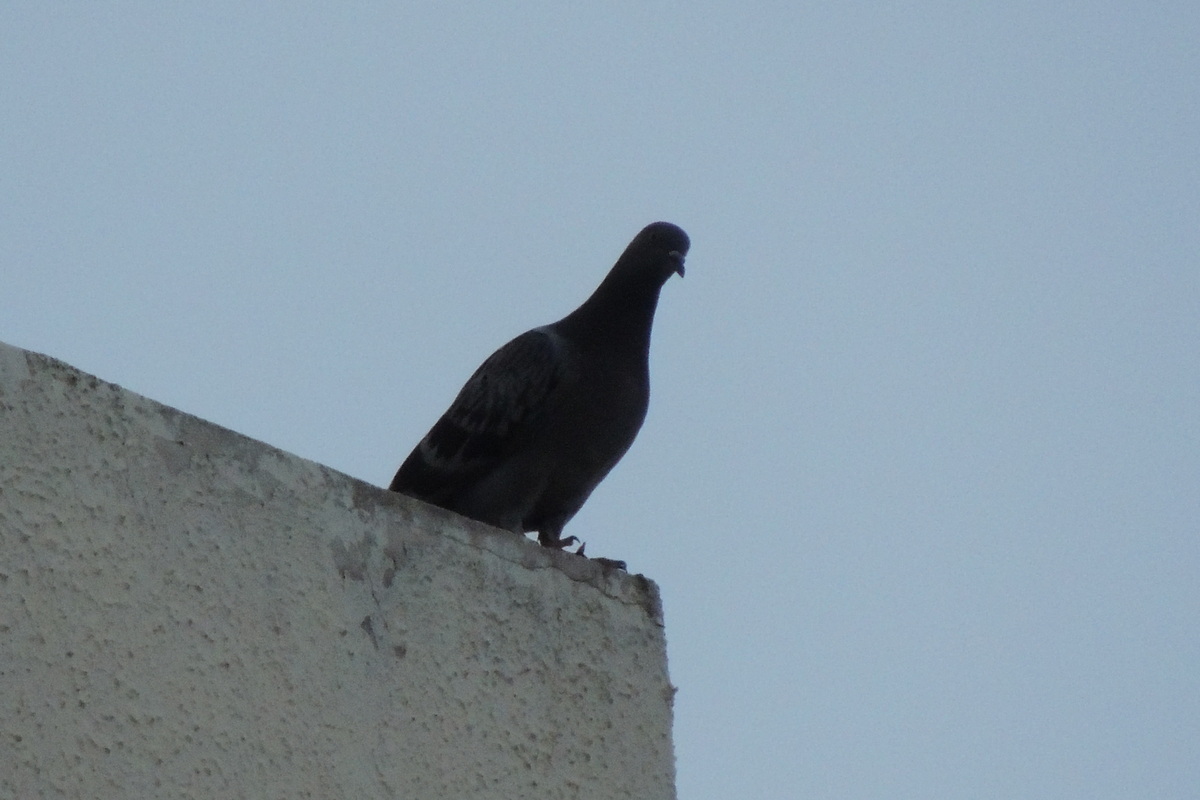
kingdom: Animalia
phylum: Chordata
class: Aves
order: Columbiformes
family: Columbidae
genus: Columba
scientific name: Columba livia
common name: Rock pigeon
